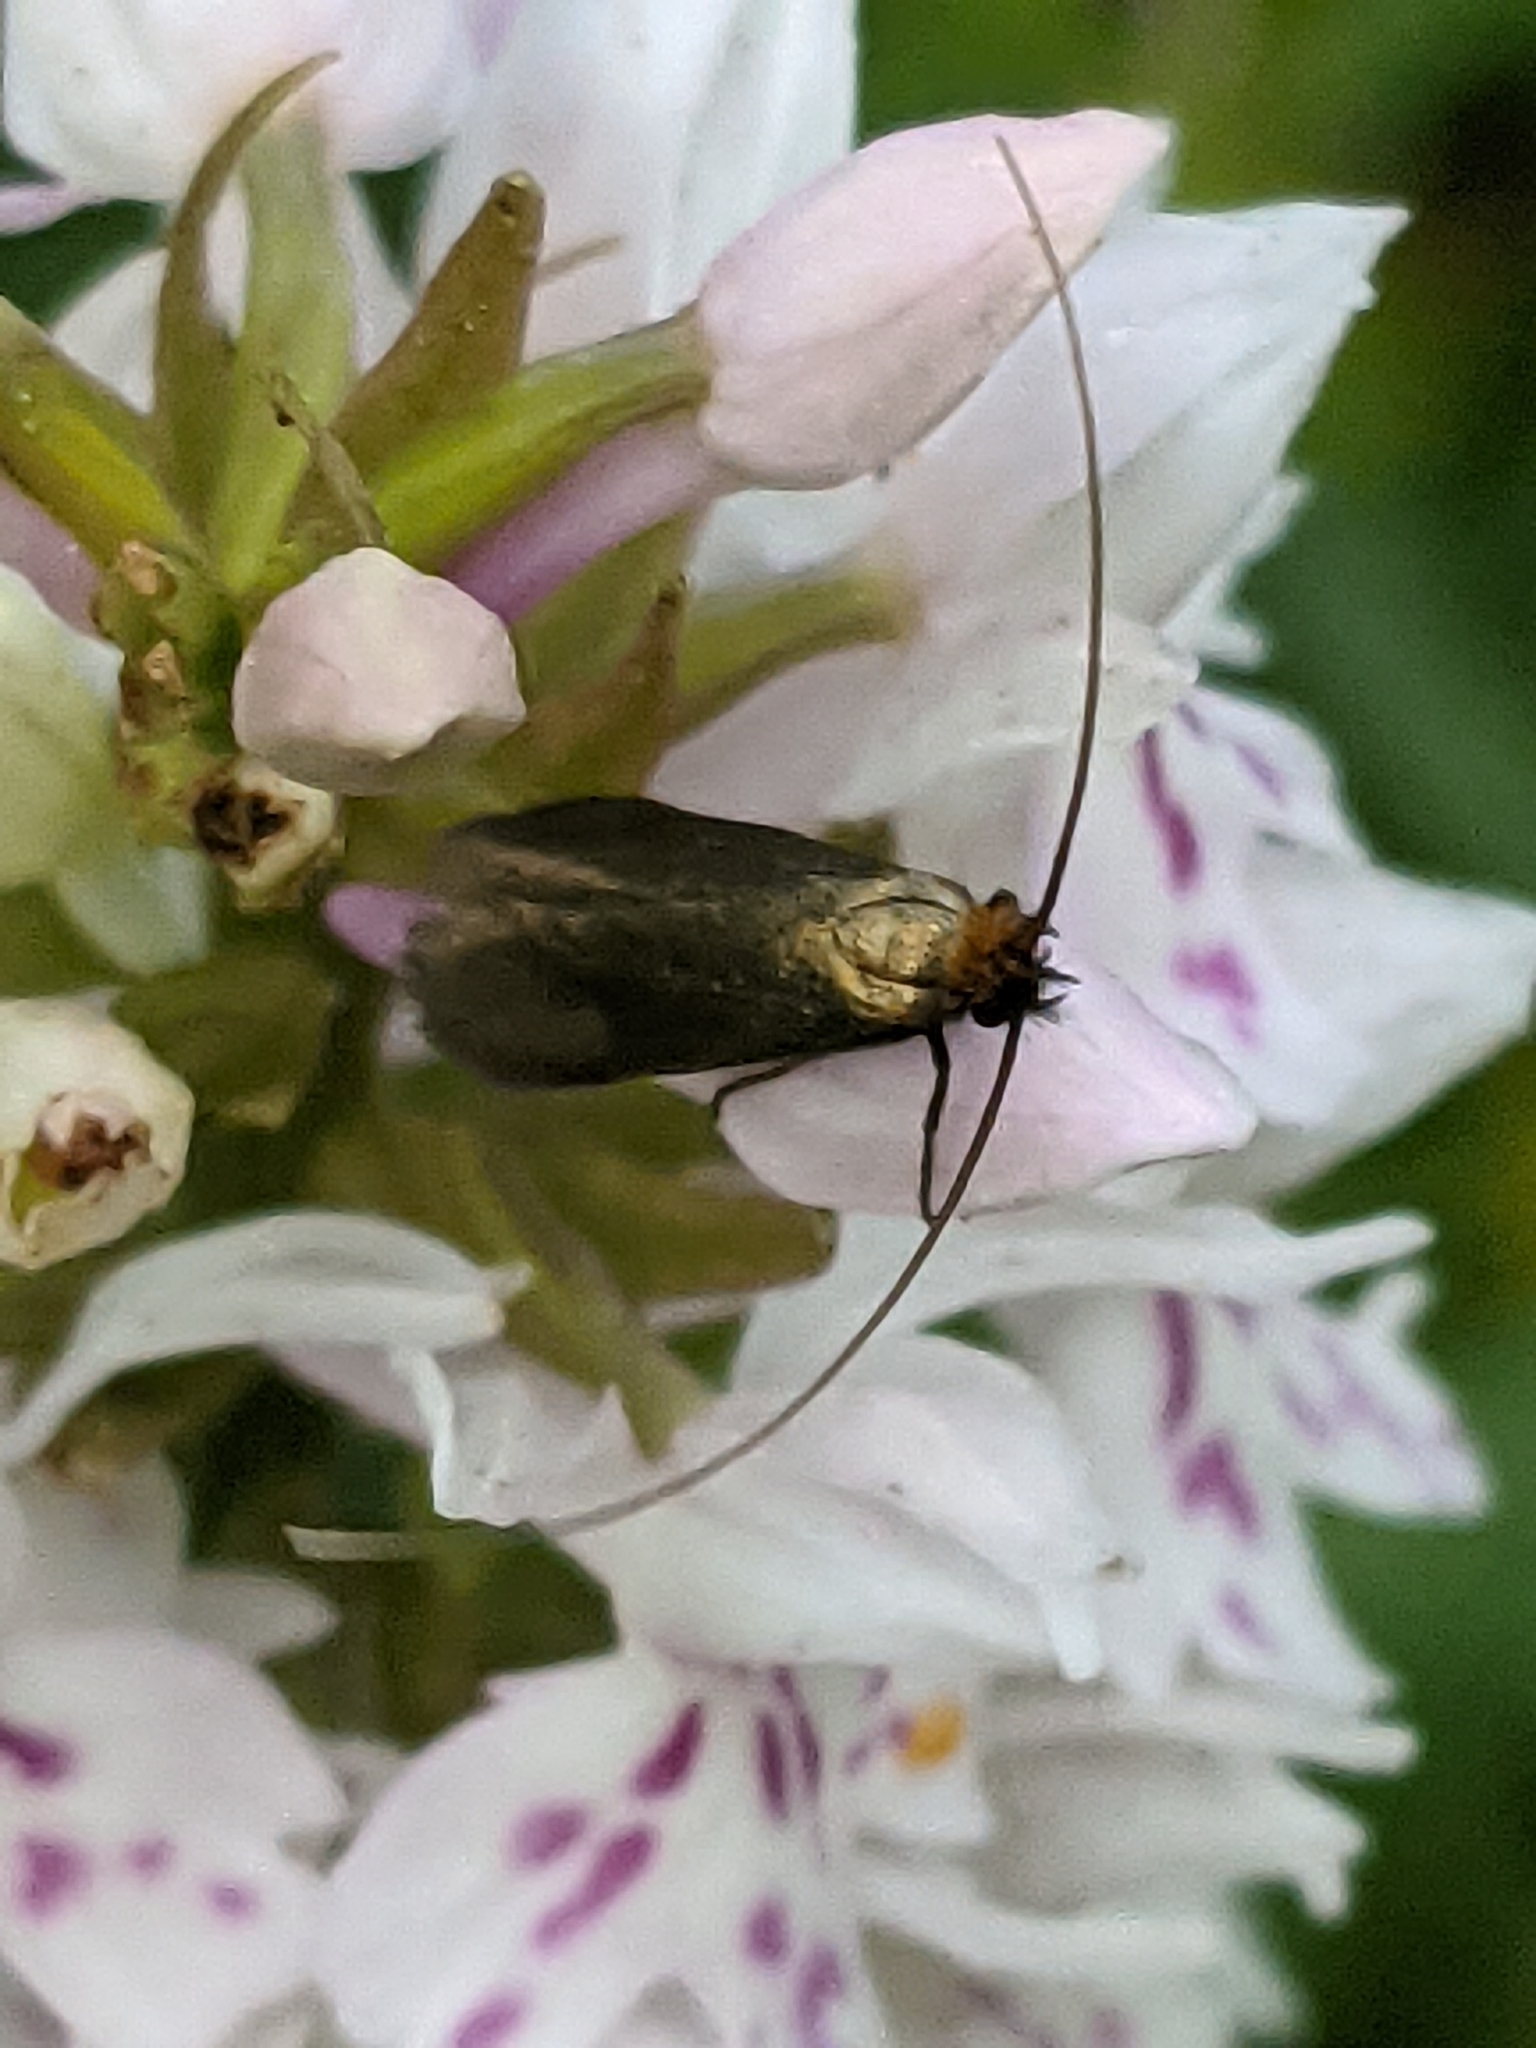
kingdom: Animalia
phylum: Arthropoda
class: Insecta
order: Lepidoptera
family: Adelidae
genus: Adela
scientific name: Adela viridella
